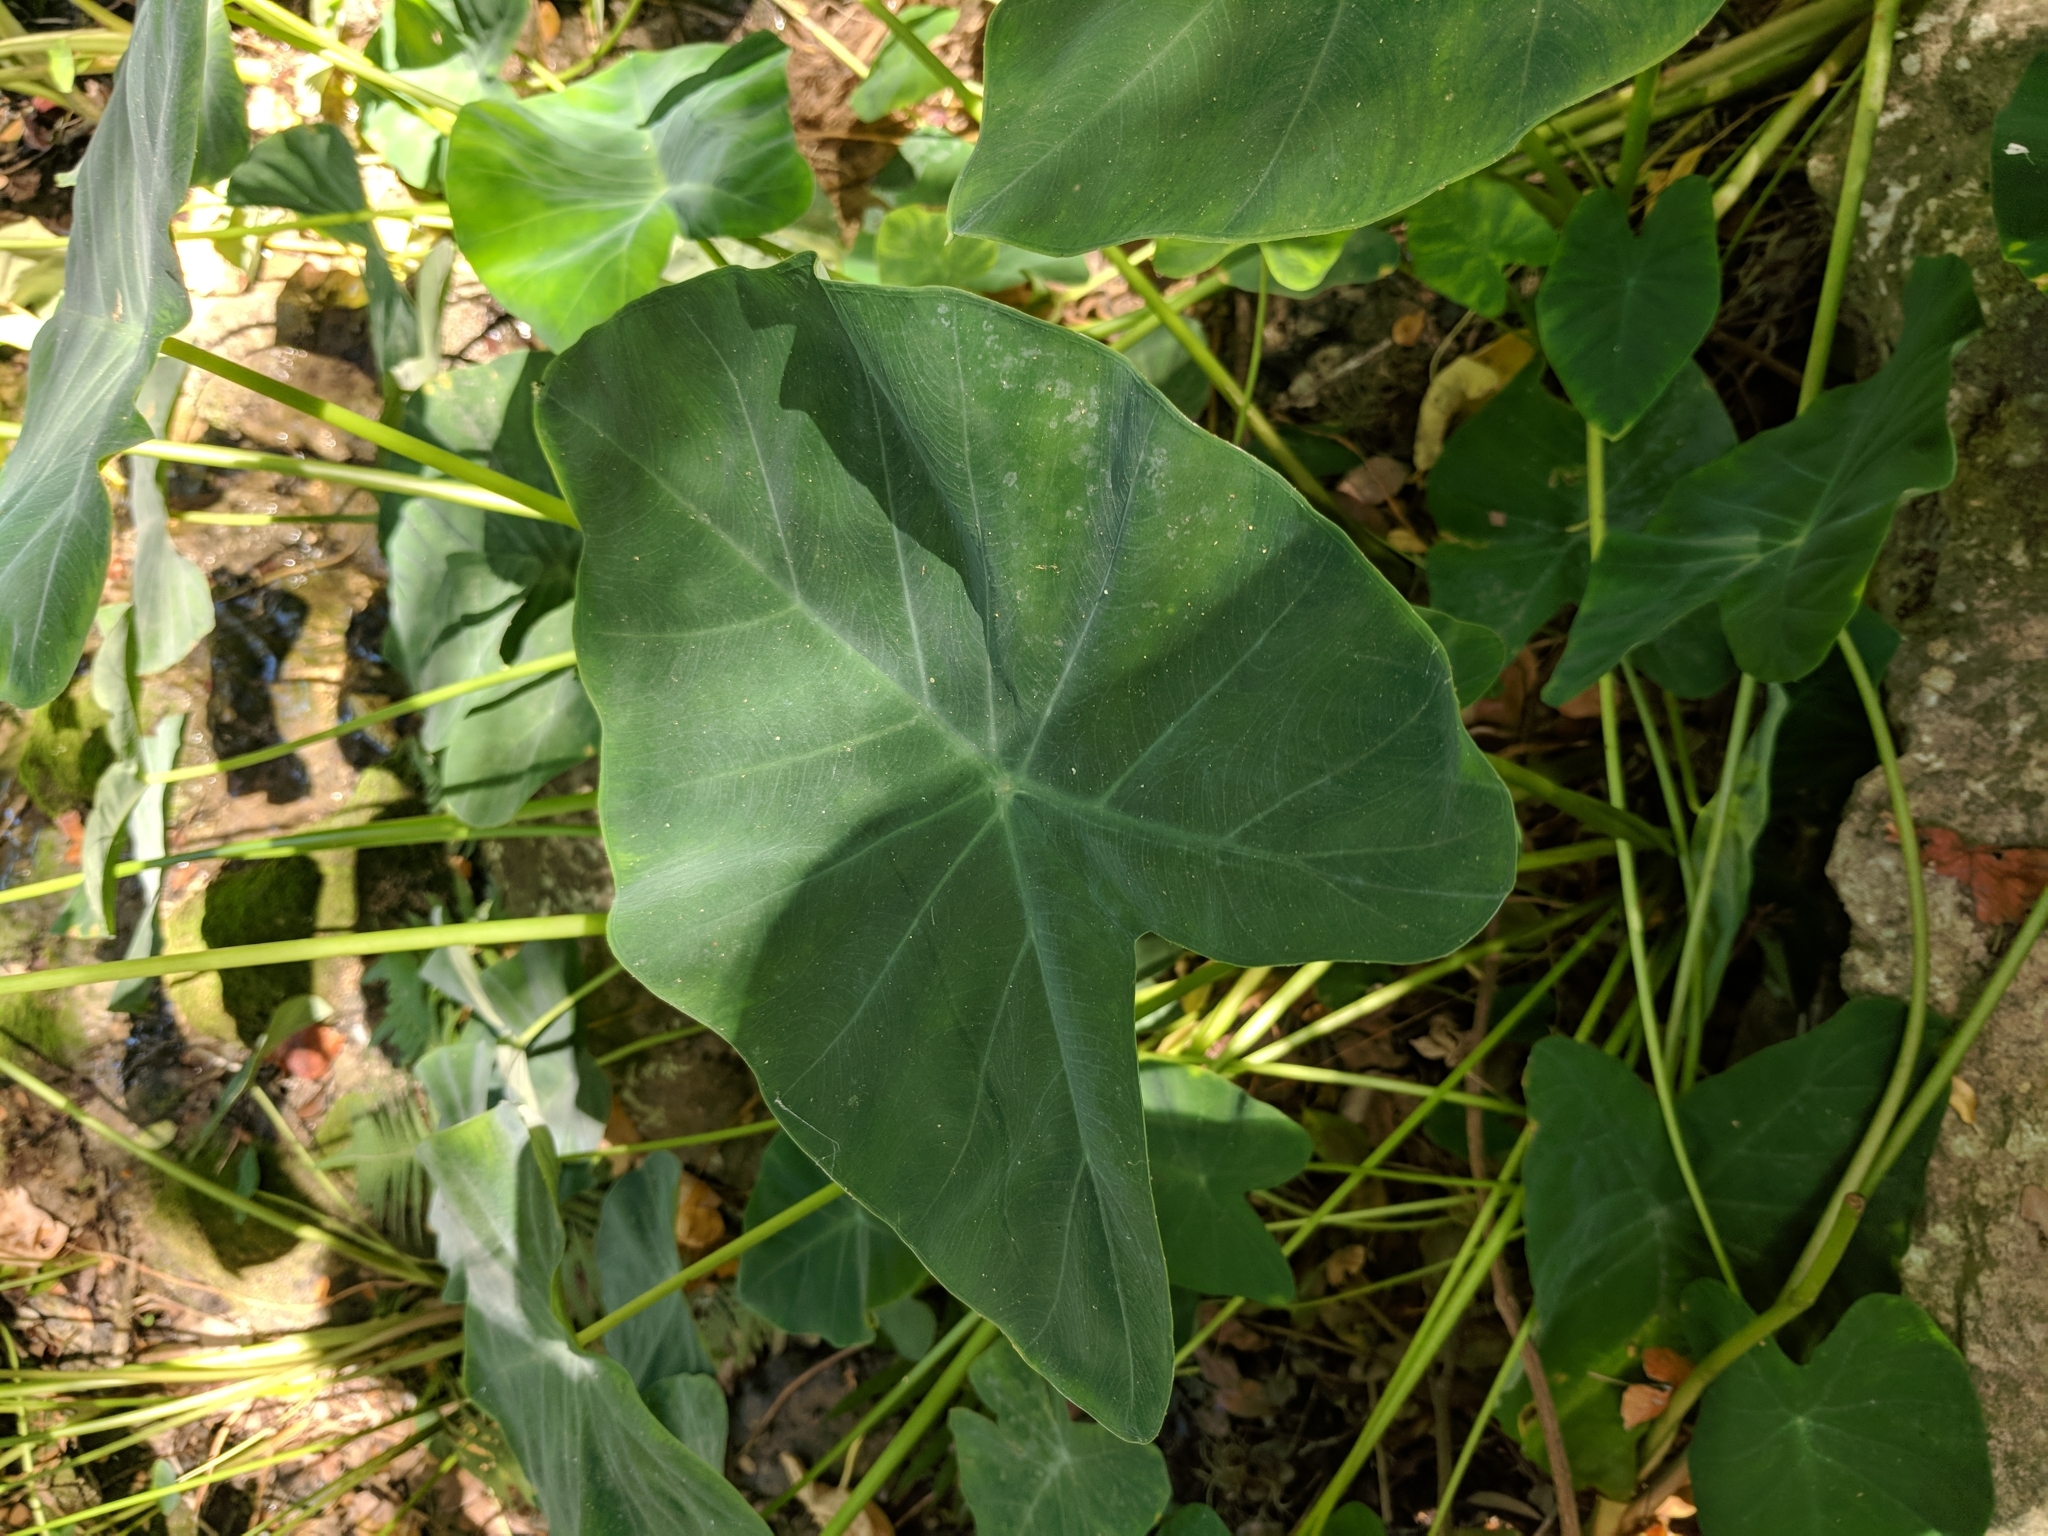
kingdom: Plantae
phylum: Tracheophyta
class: Liliopsida
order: Alismatales
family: Araceae
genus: Colocasia
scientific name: Colocasia esculenta
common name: Taro
